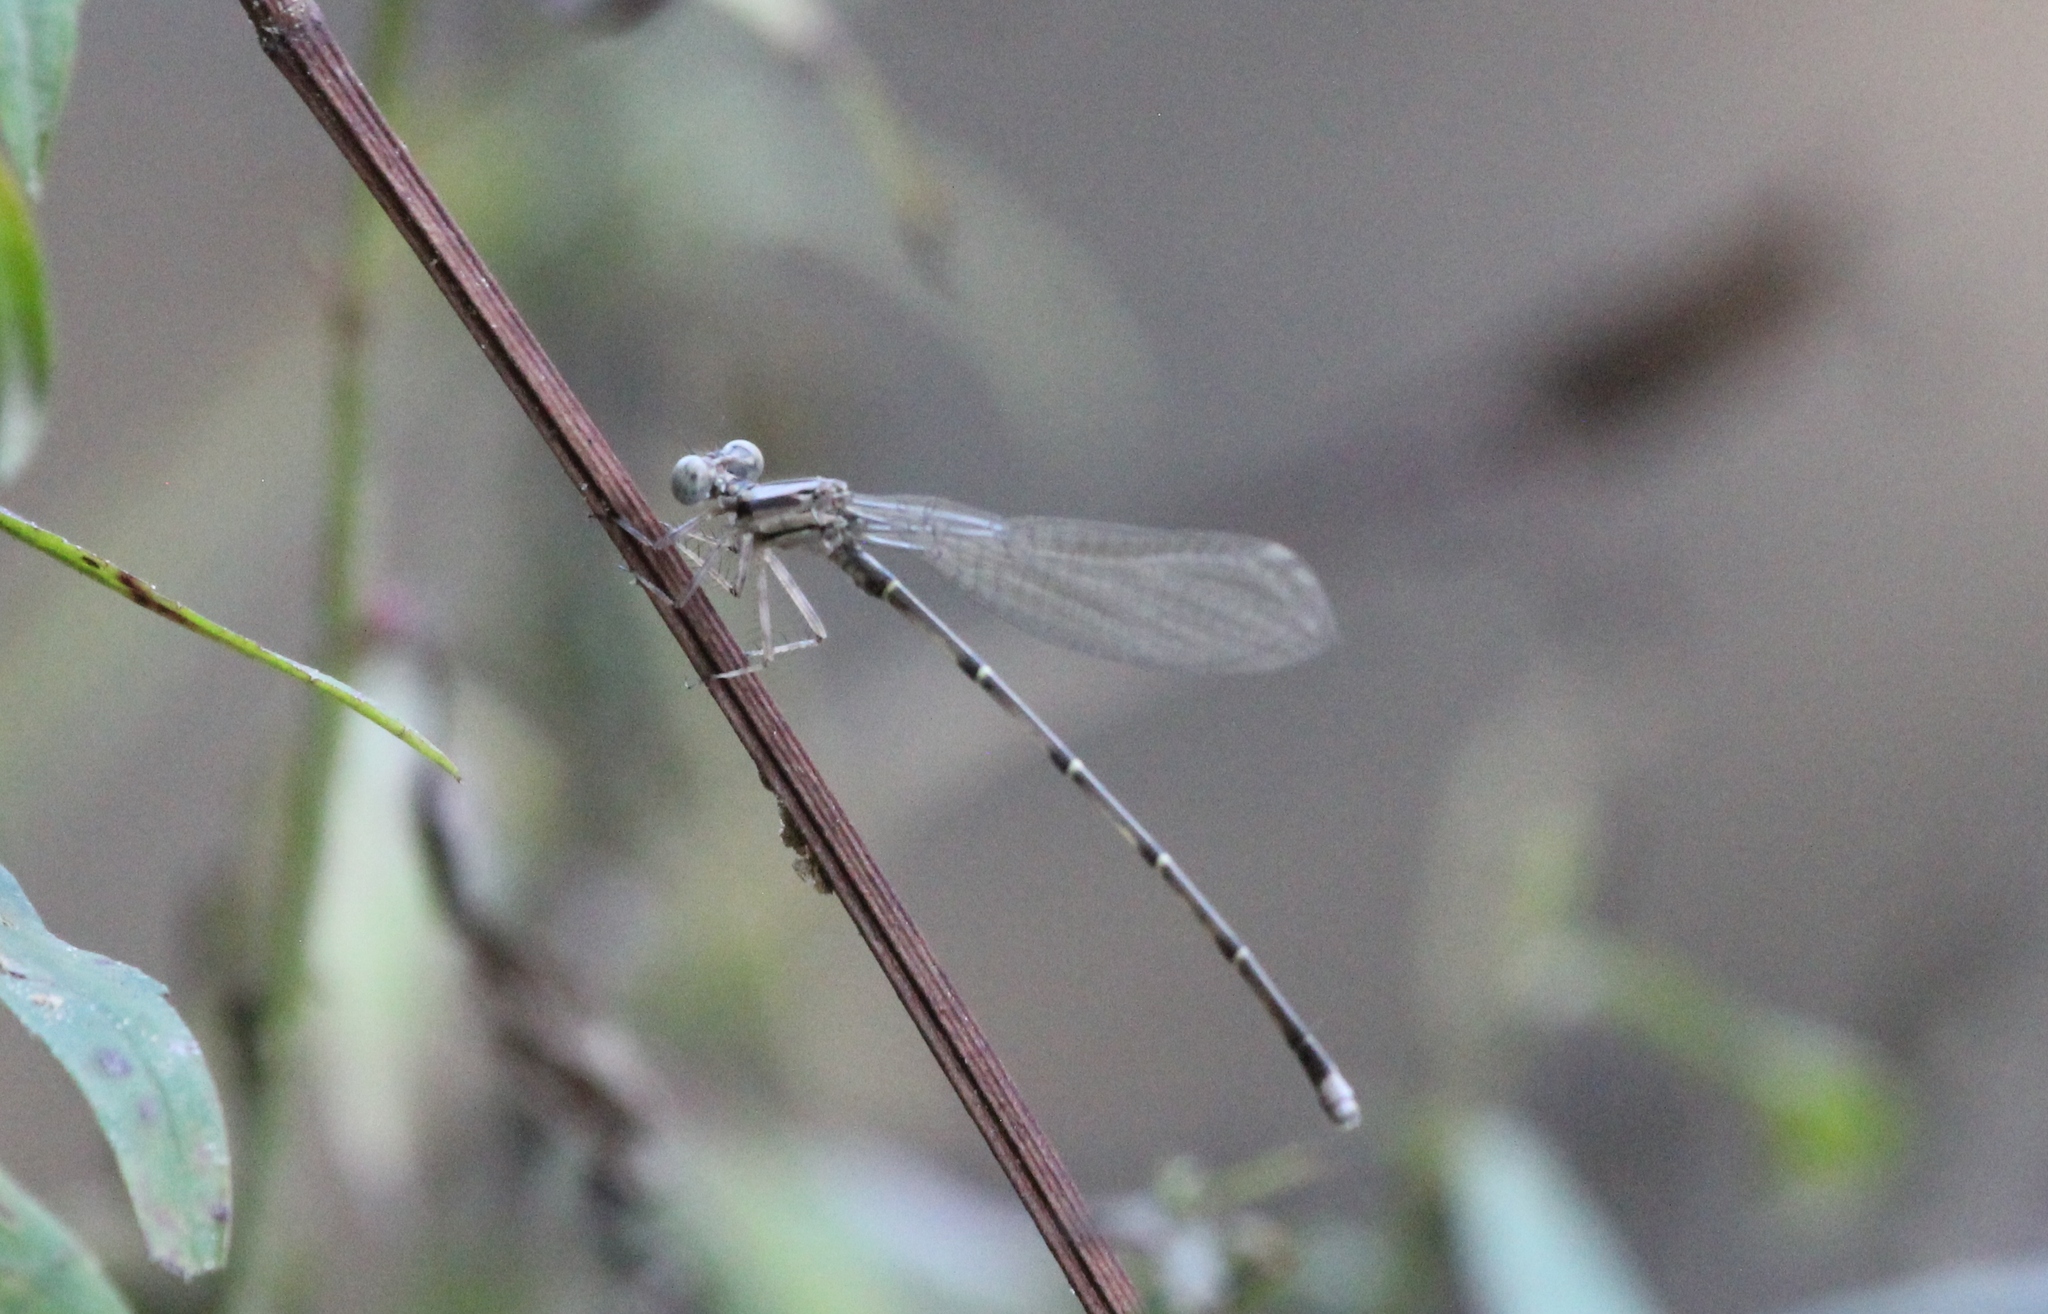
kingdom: Animalia
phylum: Arthropoda
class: Insecta
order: Odonata
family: Coenagrionidae
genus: Argia
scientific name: Argia tibialis
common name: Blue-tipped dancer
